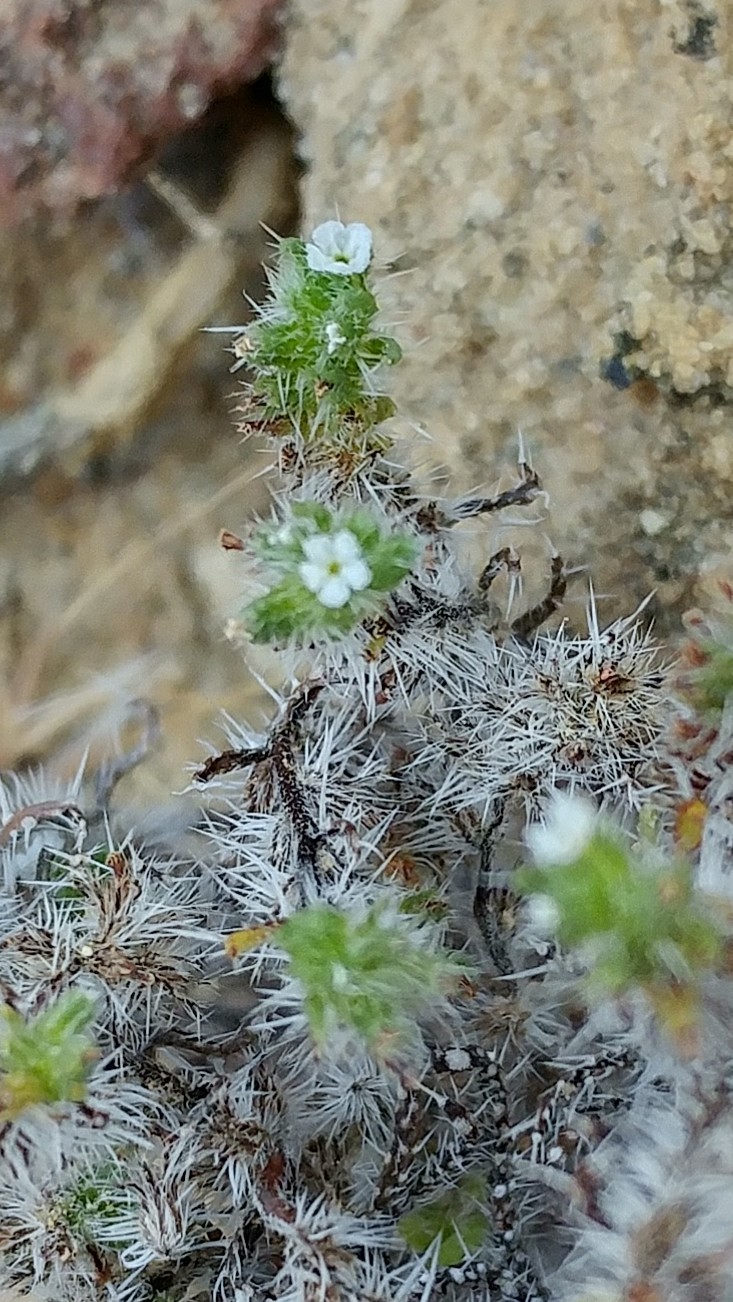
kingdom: Plantae
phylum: Tracheophyta
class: Magnoliopsida
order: Boraginales
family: Boraginaceae
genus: Cryptantha
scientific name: Cryptantha maritima
